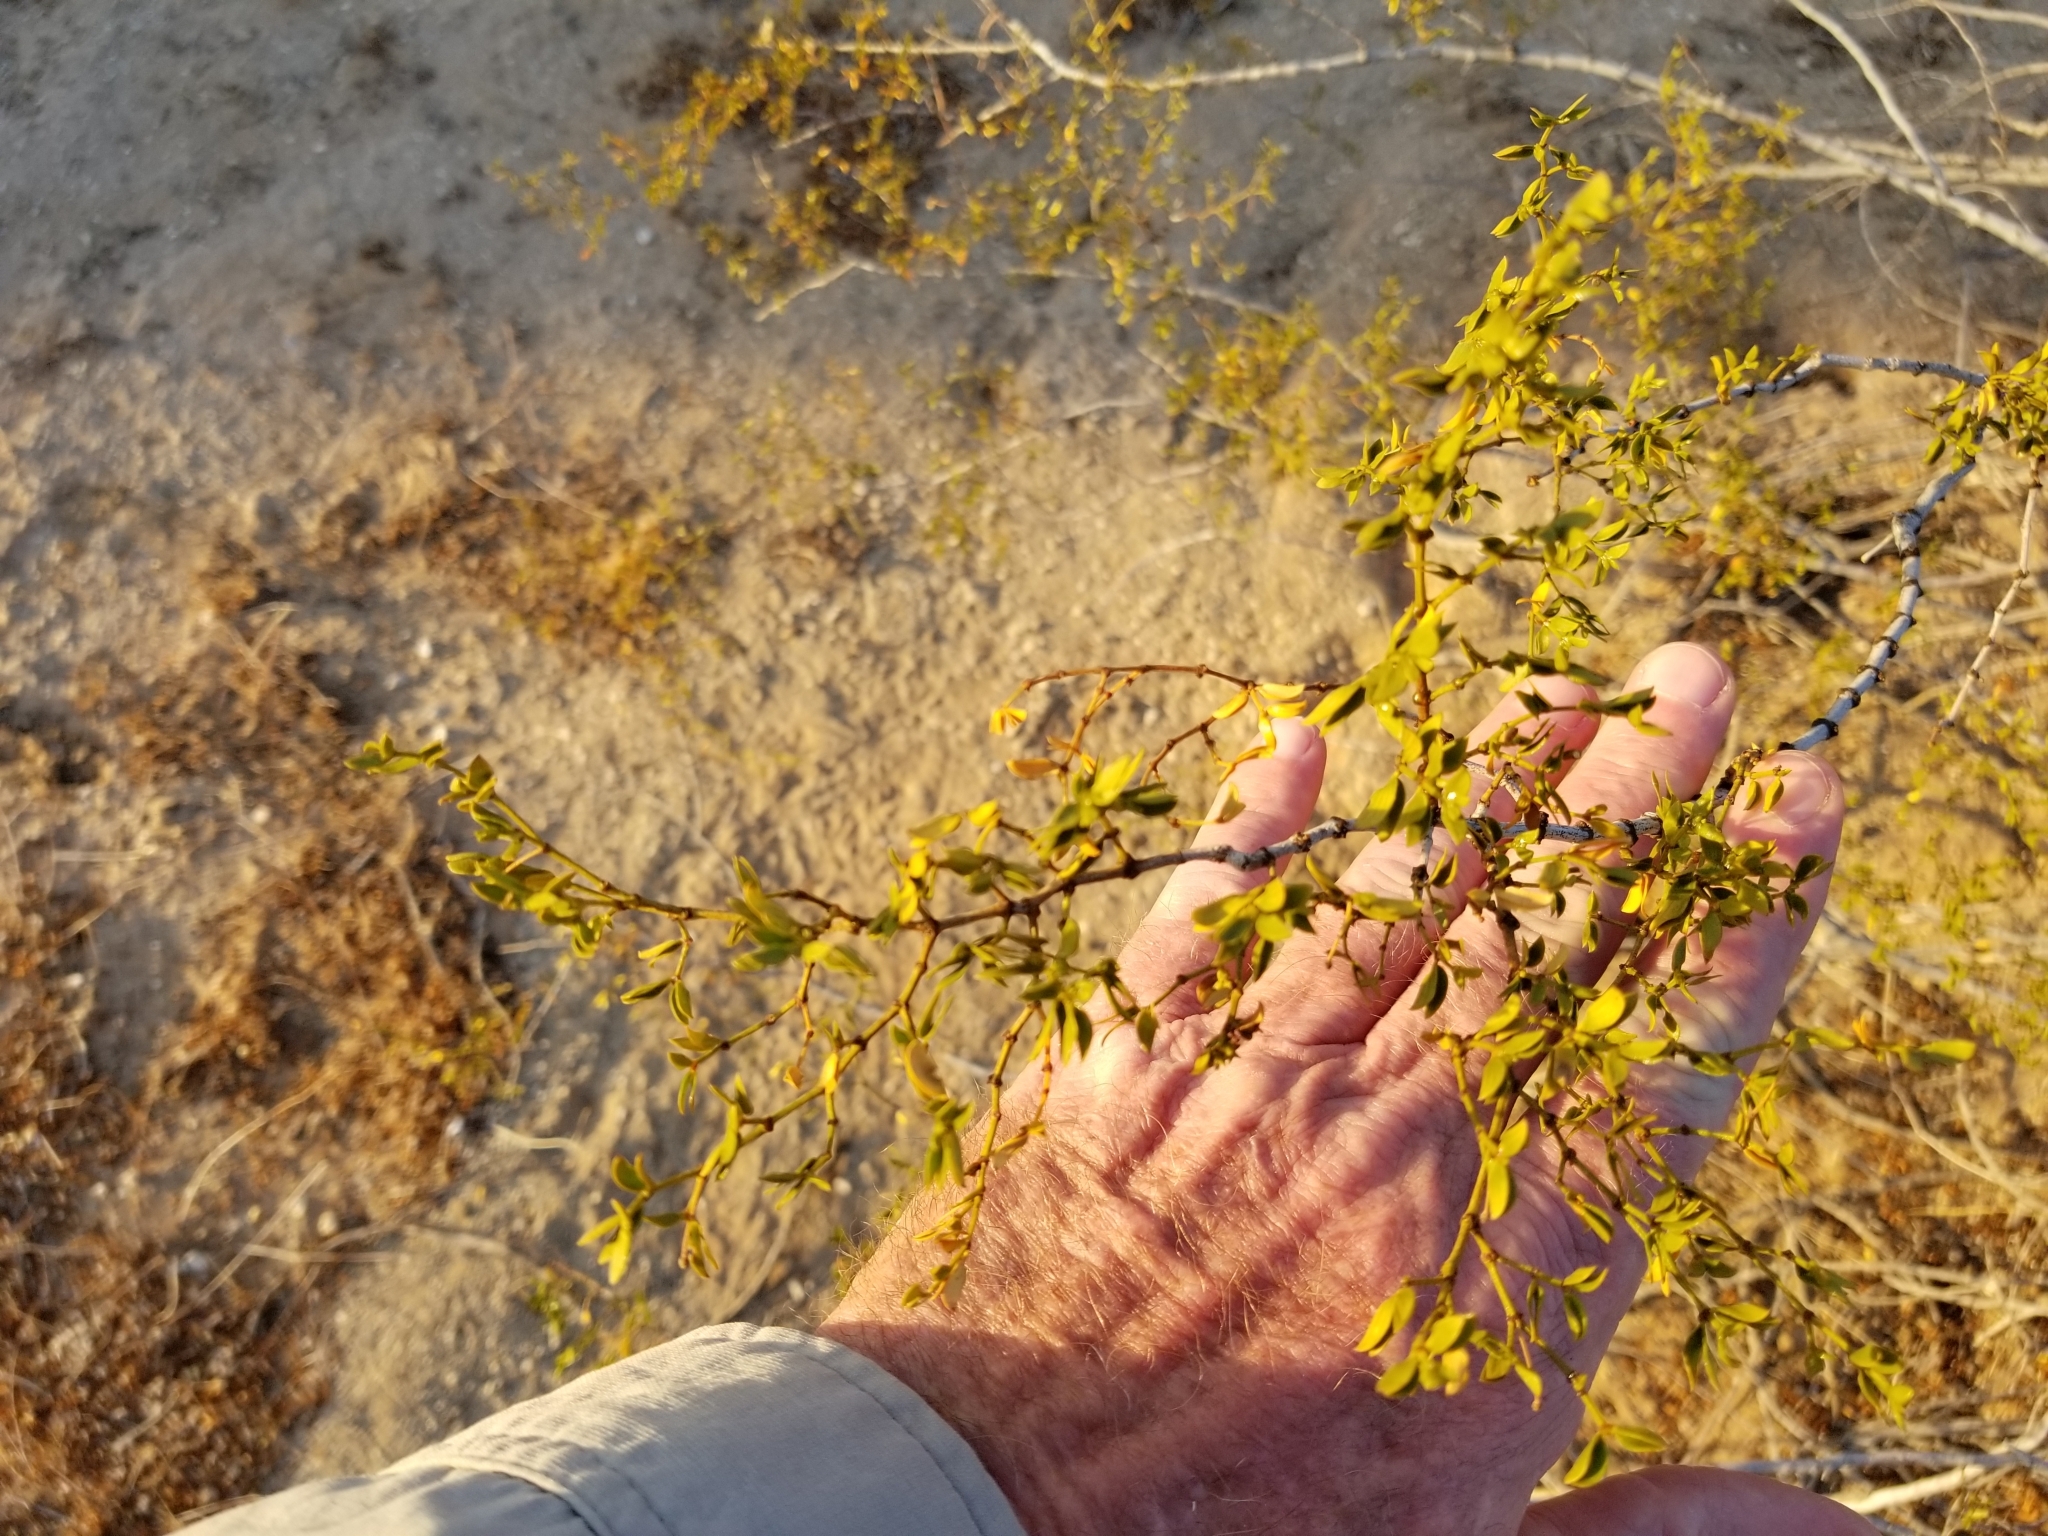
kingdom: Plantae
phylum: Tracheophyta
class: Magnoliopsida
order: Zygophyllales
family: Zygophyllaceae
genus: Larrea
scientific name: Larrea tridentata
